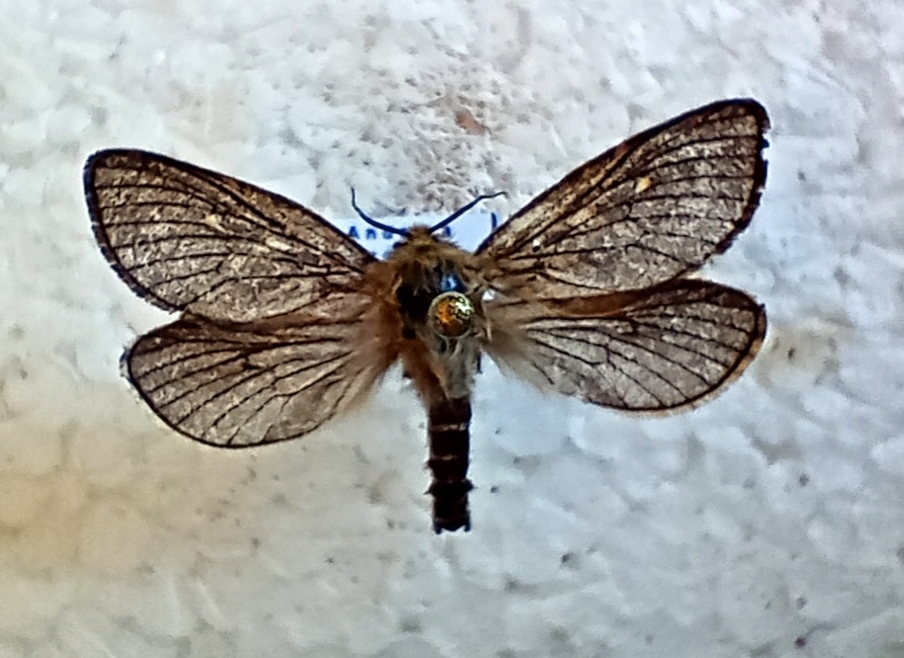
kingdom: Animalia
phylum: Arthropoda
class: Insecta
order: Lepidoptera
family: Hepialidae
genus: Pharmacis
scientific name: Pharmacis pyrenaicus
